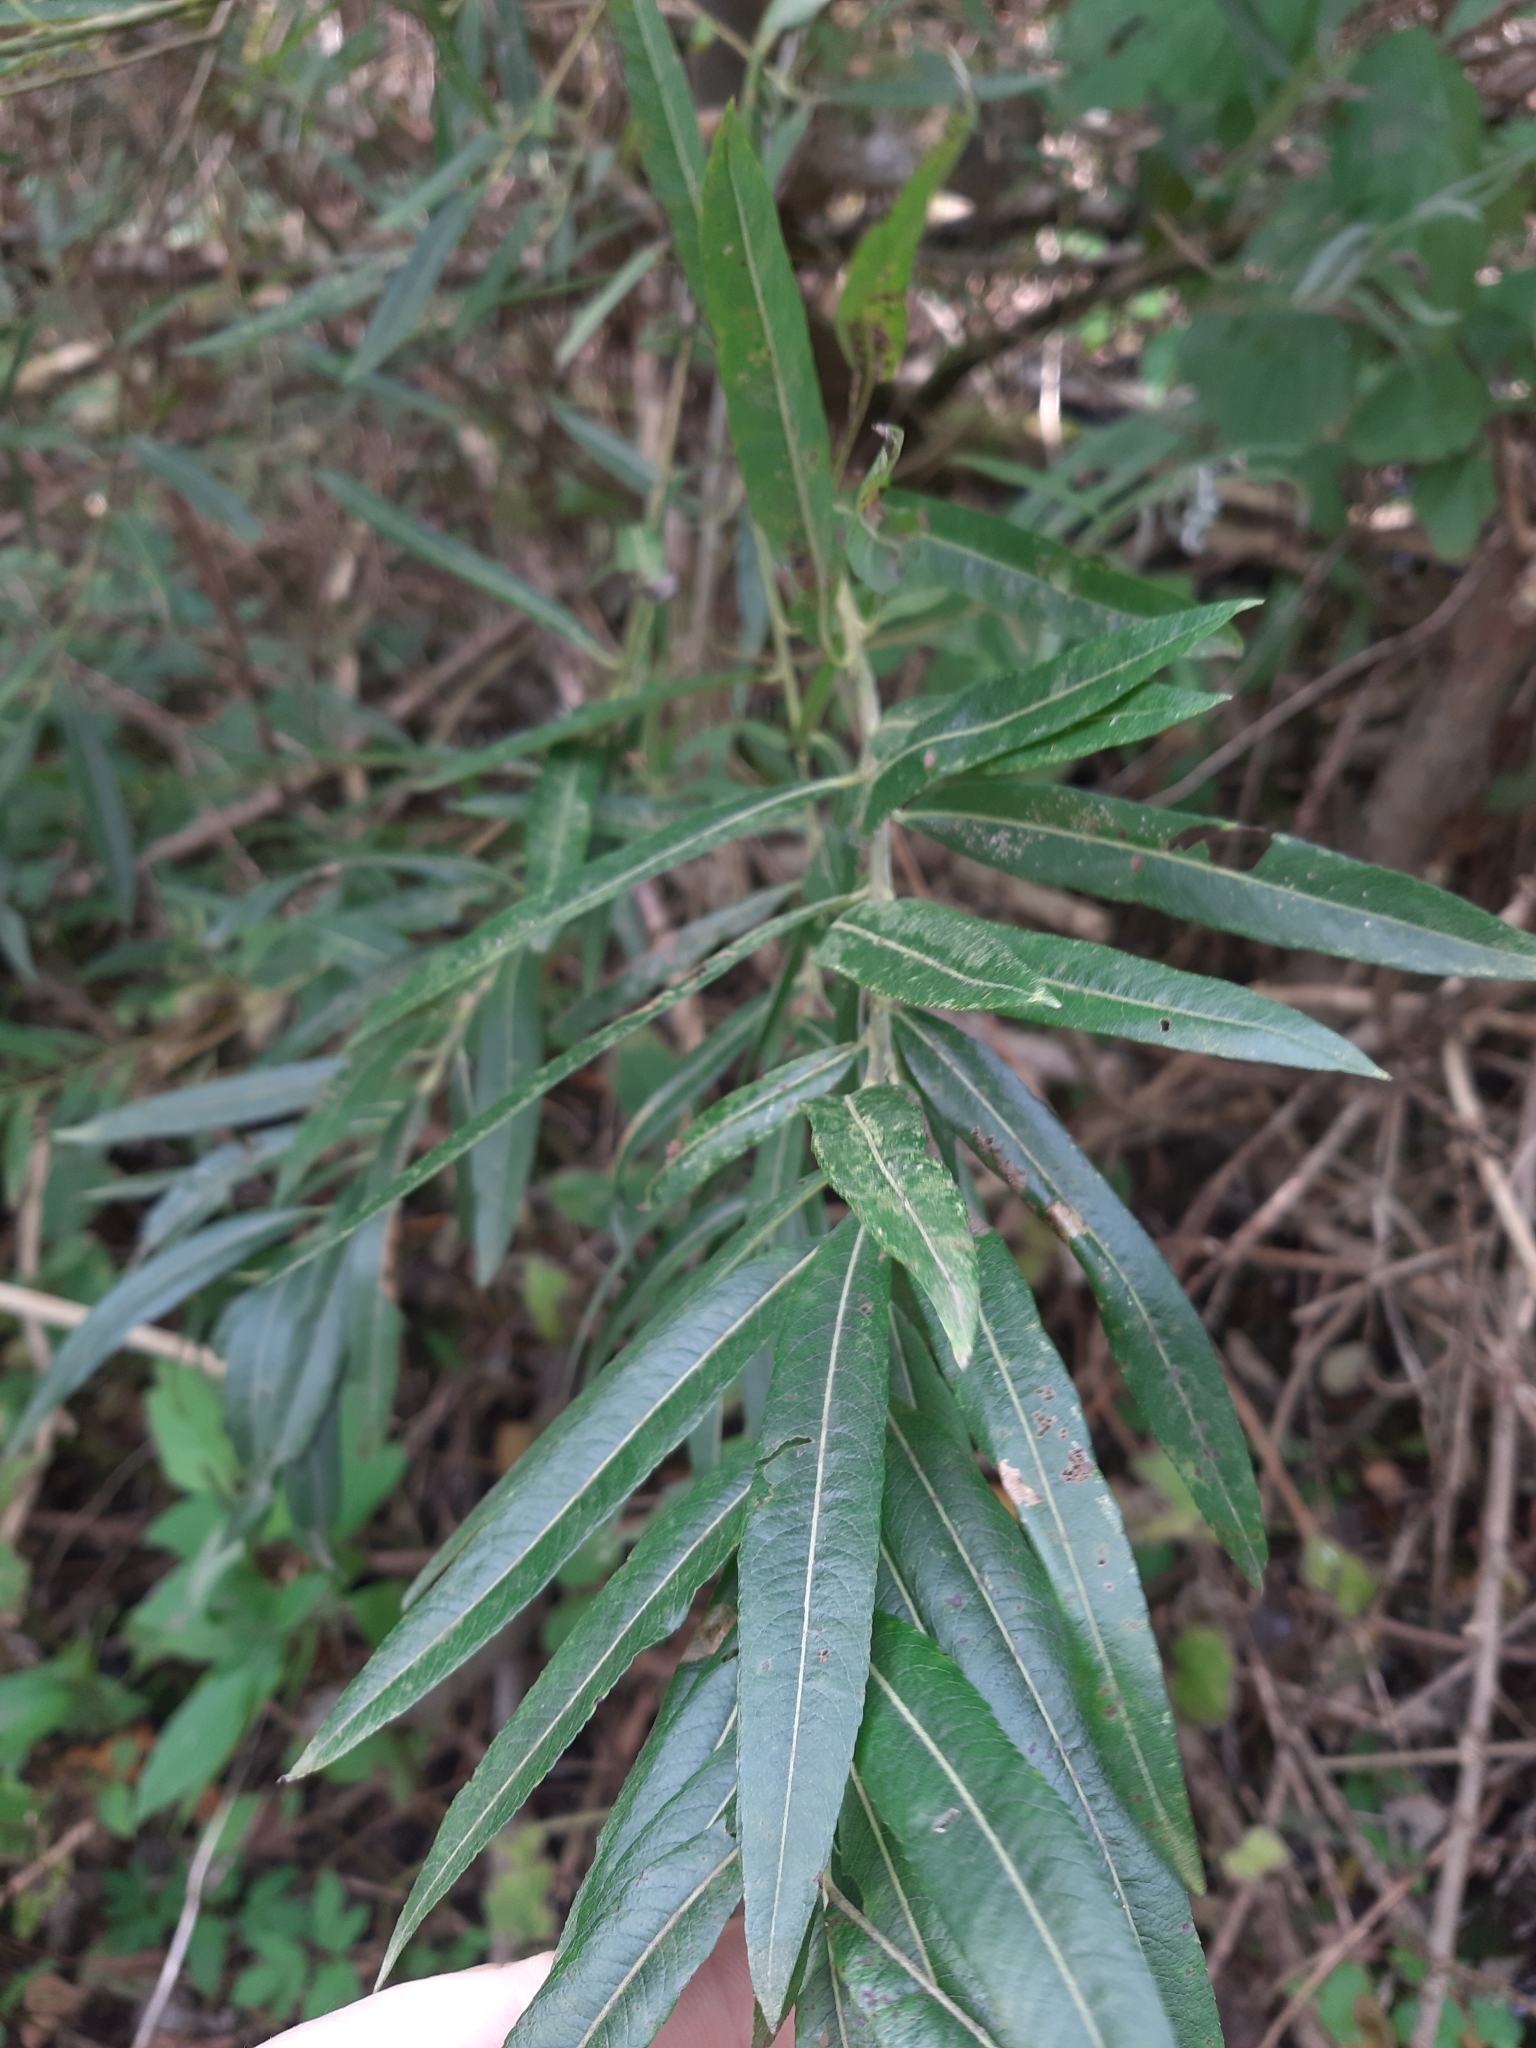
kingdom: Plantae
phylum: Tracheophyta
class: Magnoliopsida
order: Malpighiales
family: Salicaceae
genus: Salix
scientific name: Salix viminalis
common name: Osier
